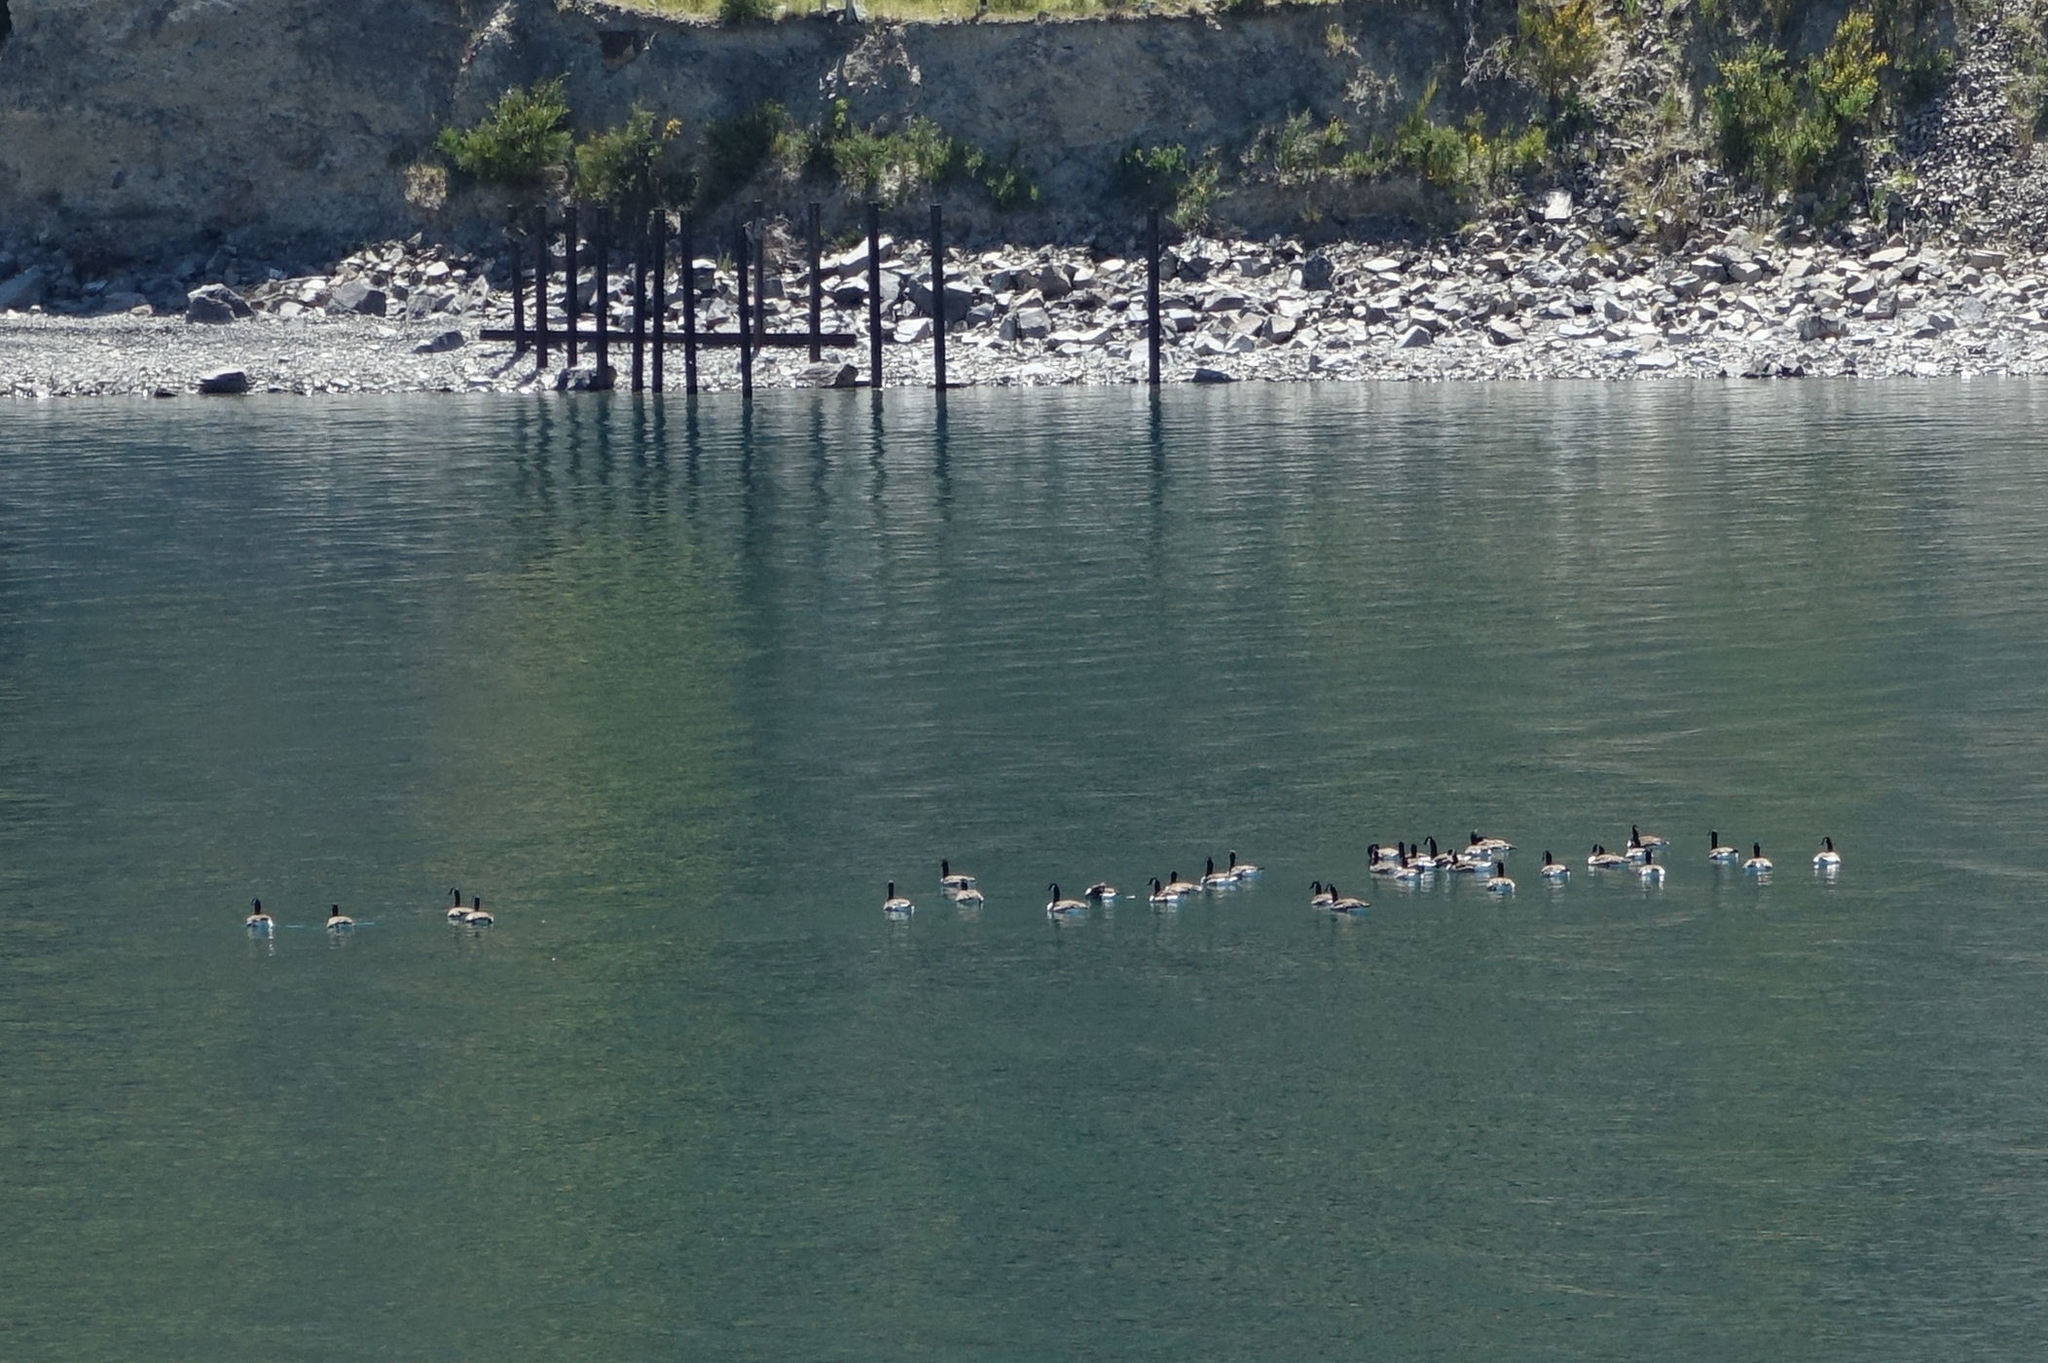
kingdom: Animalia
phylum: Chordata
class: Aves
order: Anseriformes
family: Anatidae
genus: Branta
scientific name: Branta canadensis
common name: Canada goose
